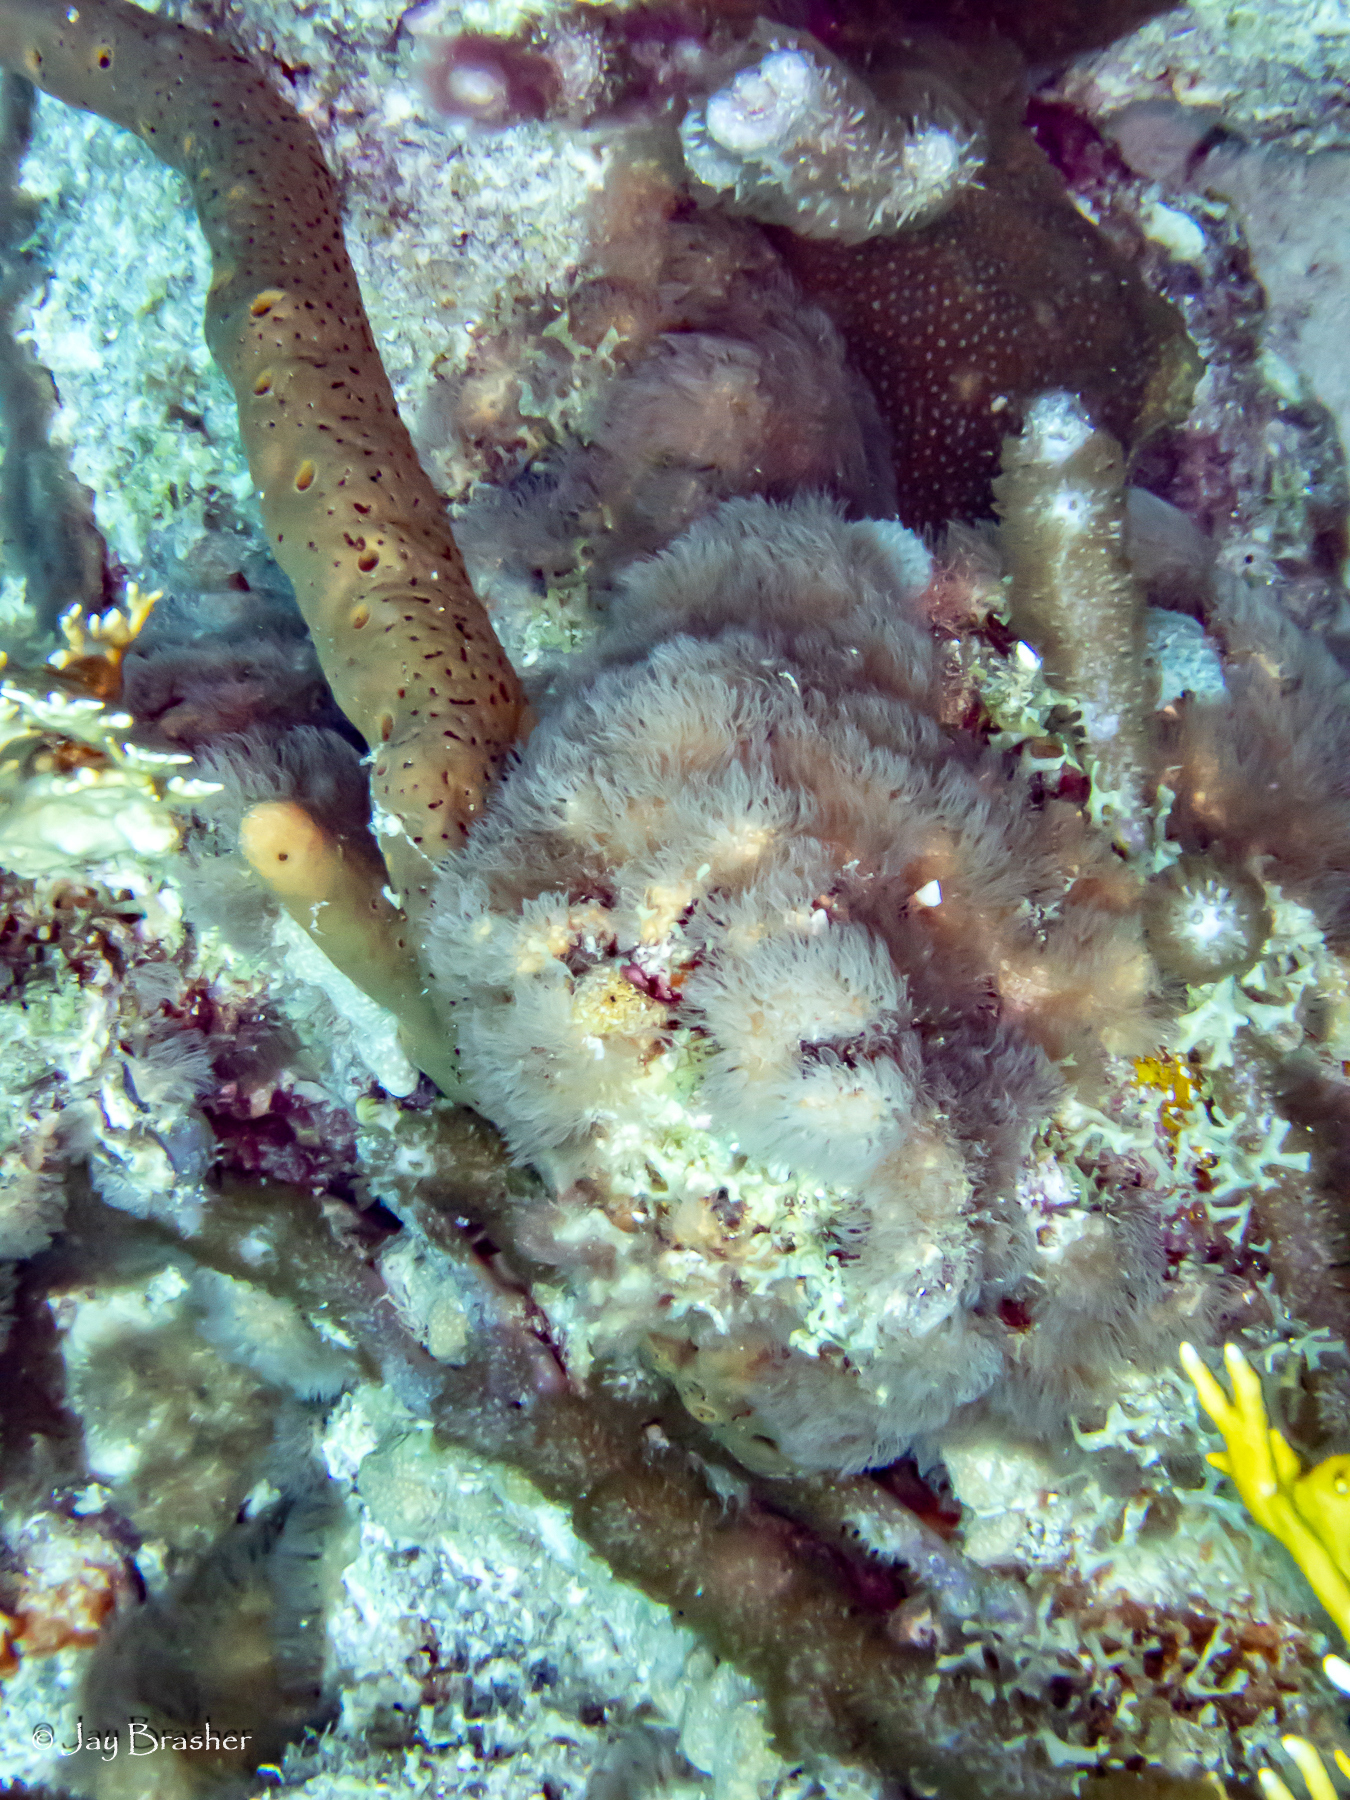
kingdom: Animalia
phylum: Porifera
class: Demospongiae
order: Agelasida
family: Agelasidae
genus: Agelas
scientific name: Agelas conifera
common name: Brown tube sponge
